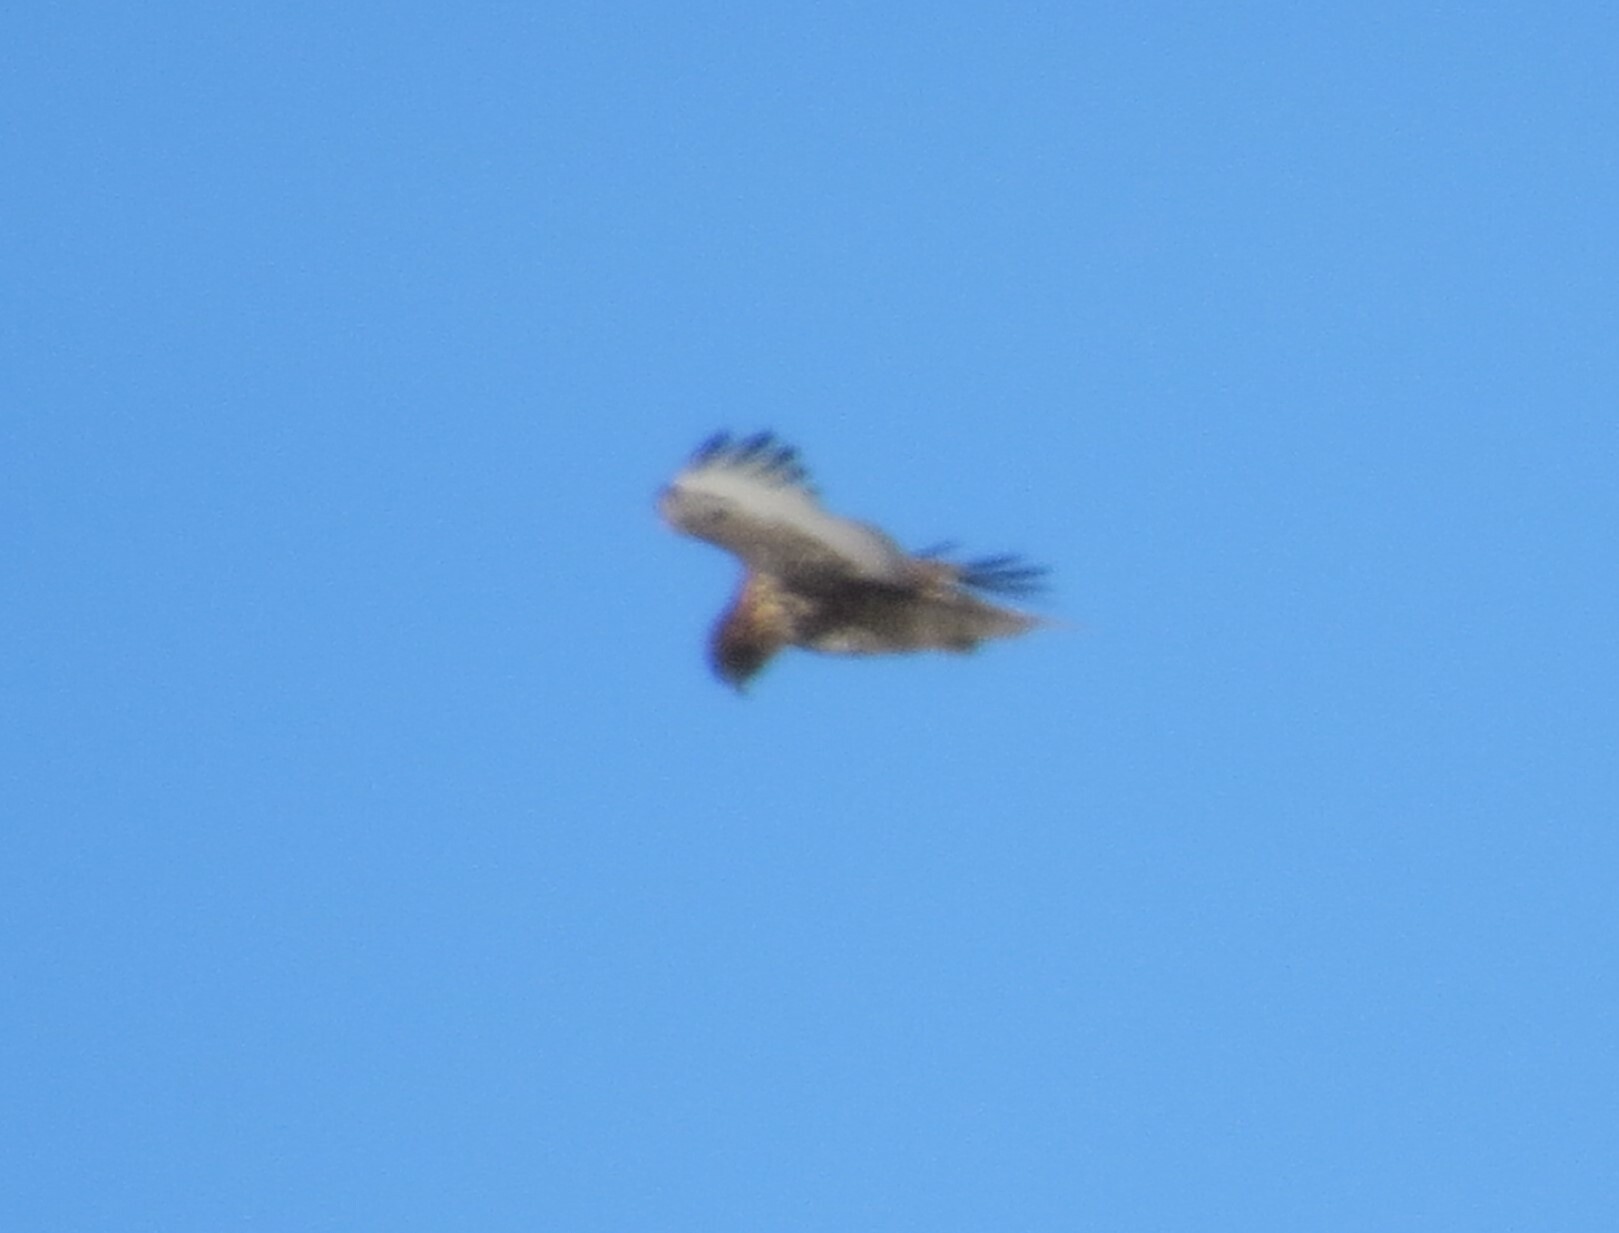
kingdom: Animalia
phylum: Chordata
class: Aves
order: Accipitriformes
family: Accipitridae
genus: Buteo
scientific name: Buteo lagopus
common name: Rough-legged buzzard
